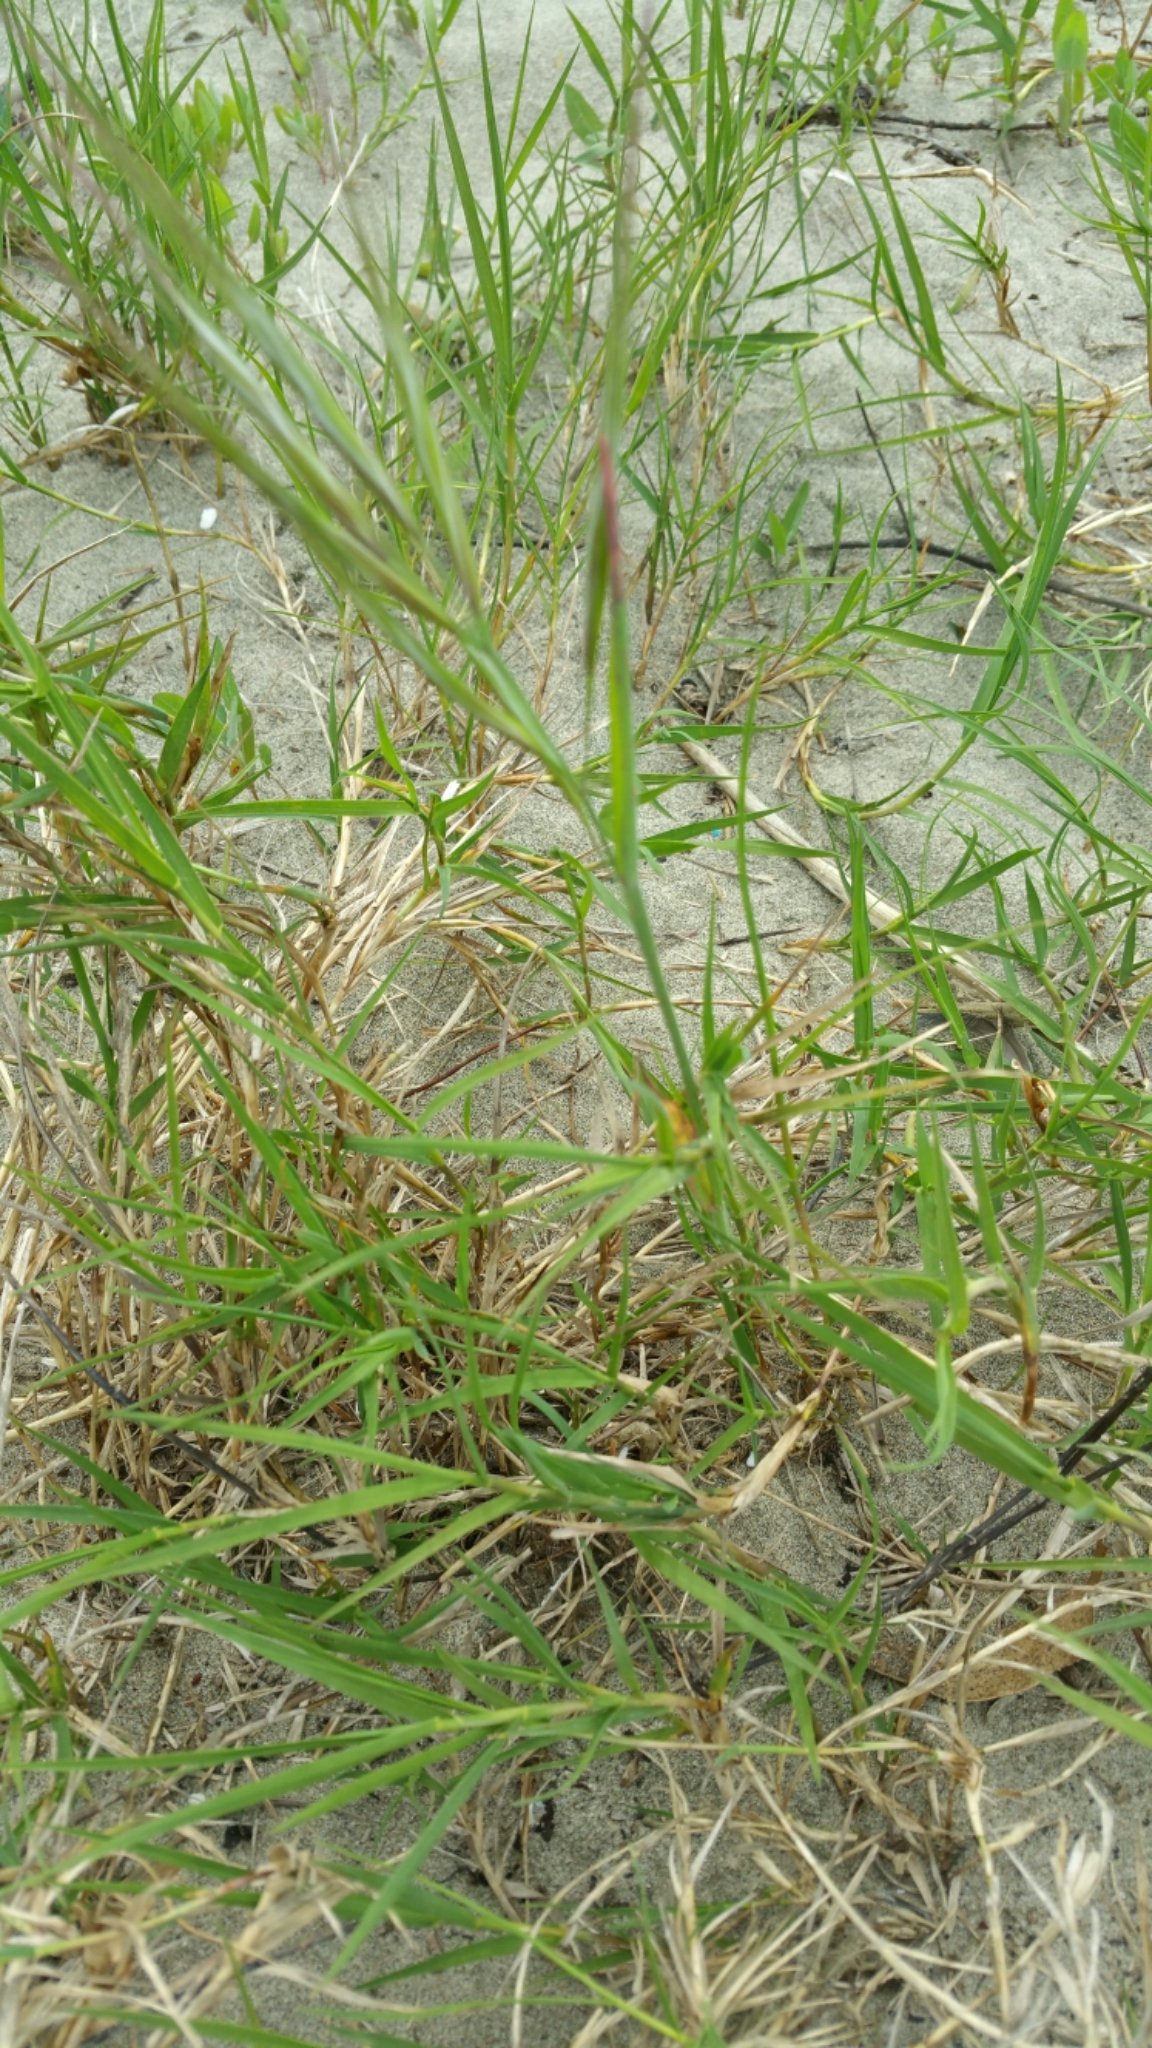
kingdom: Plantae
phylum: Tracheophyta
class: Liliopsida
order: Poales
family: Poaceae
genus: Distichlis
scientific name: Distichlis spicata
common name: Saltgrass
